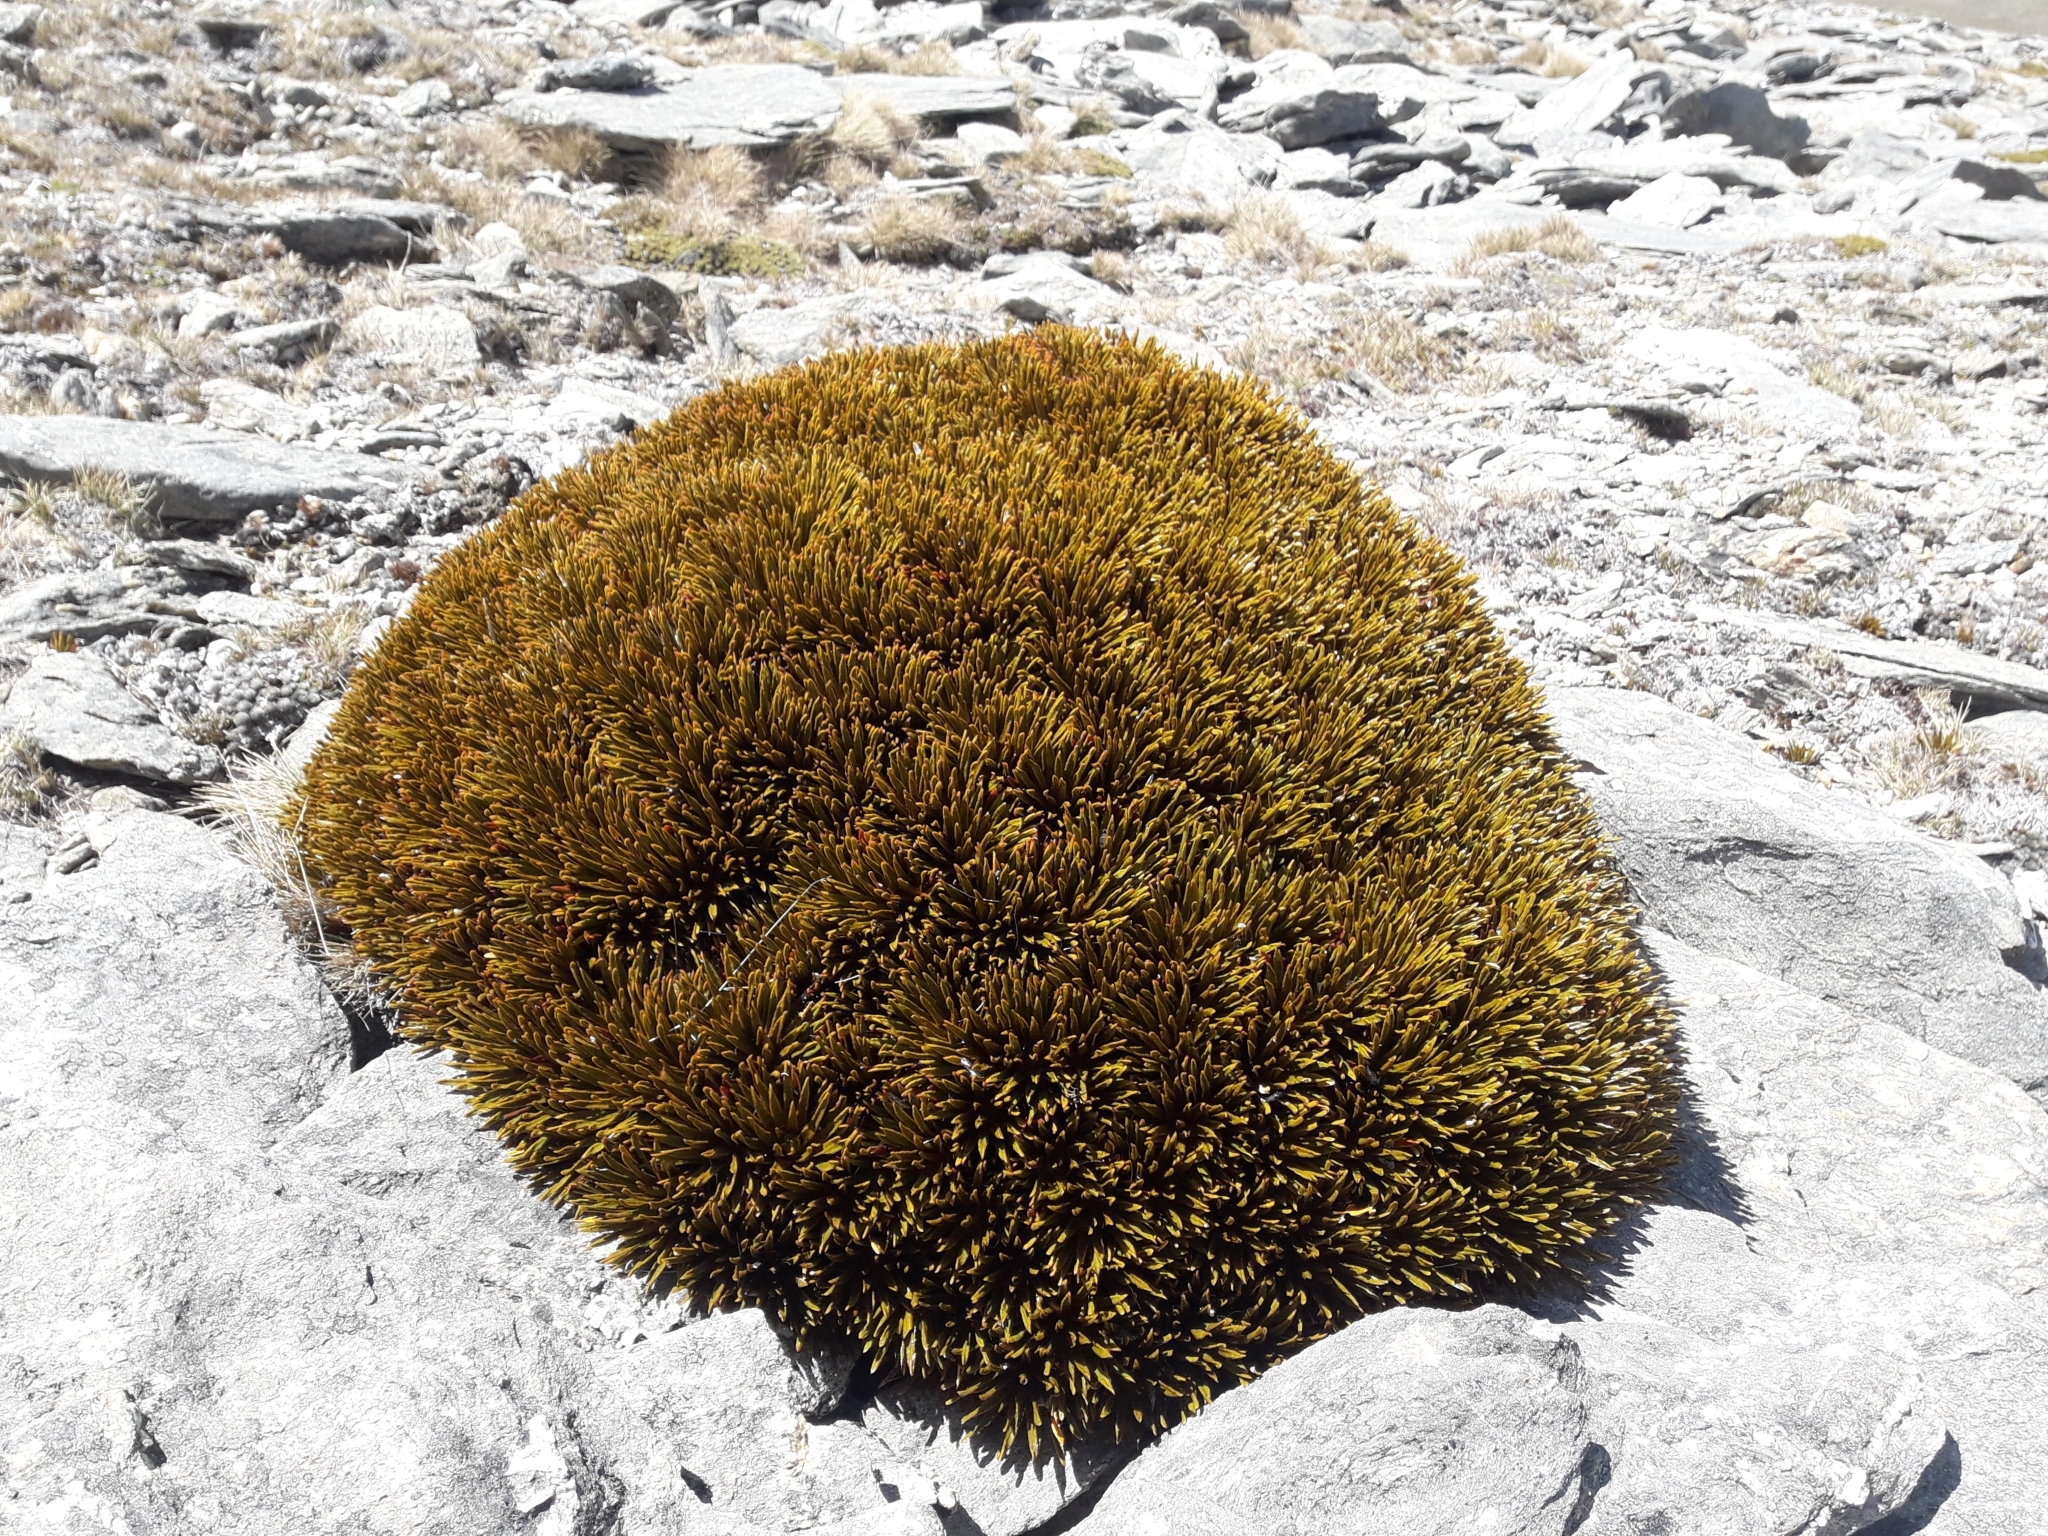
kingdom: Plantae
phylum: Tracheophyta
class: Magnoliopsida
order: Apiales
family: Apiaceae
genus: Aciphylla
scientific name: Aciphylla simplex
